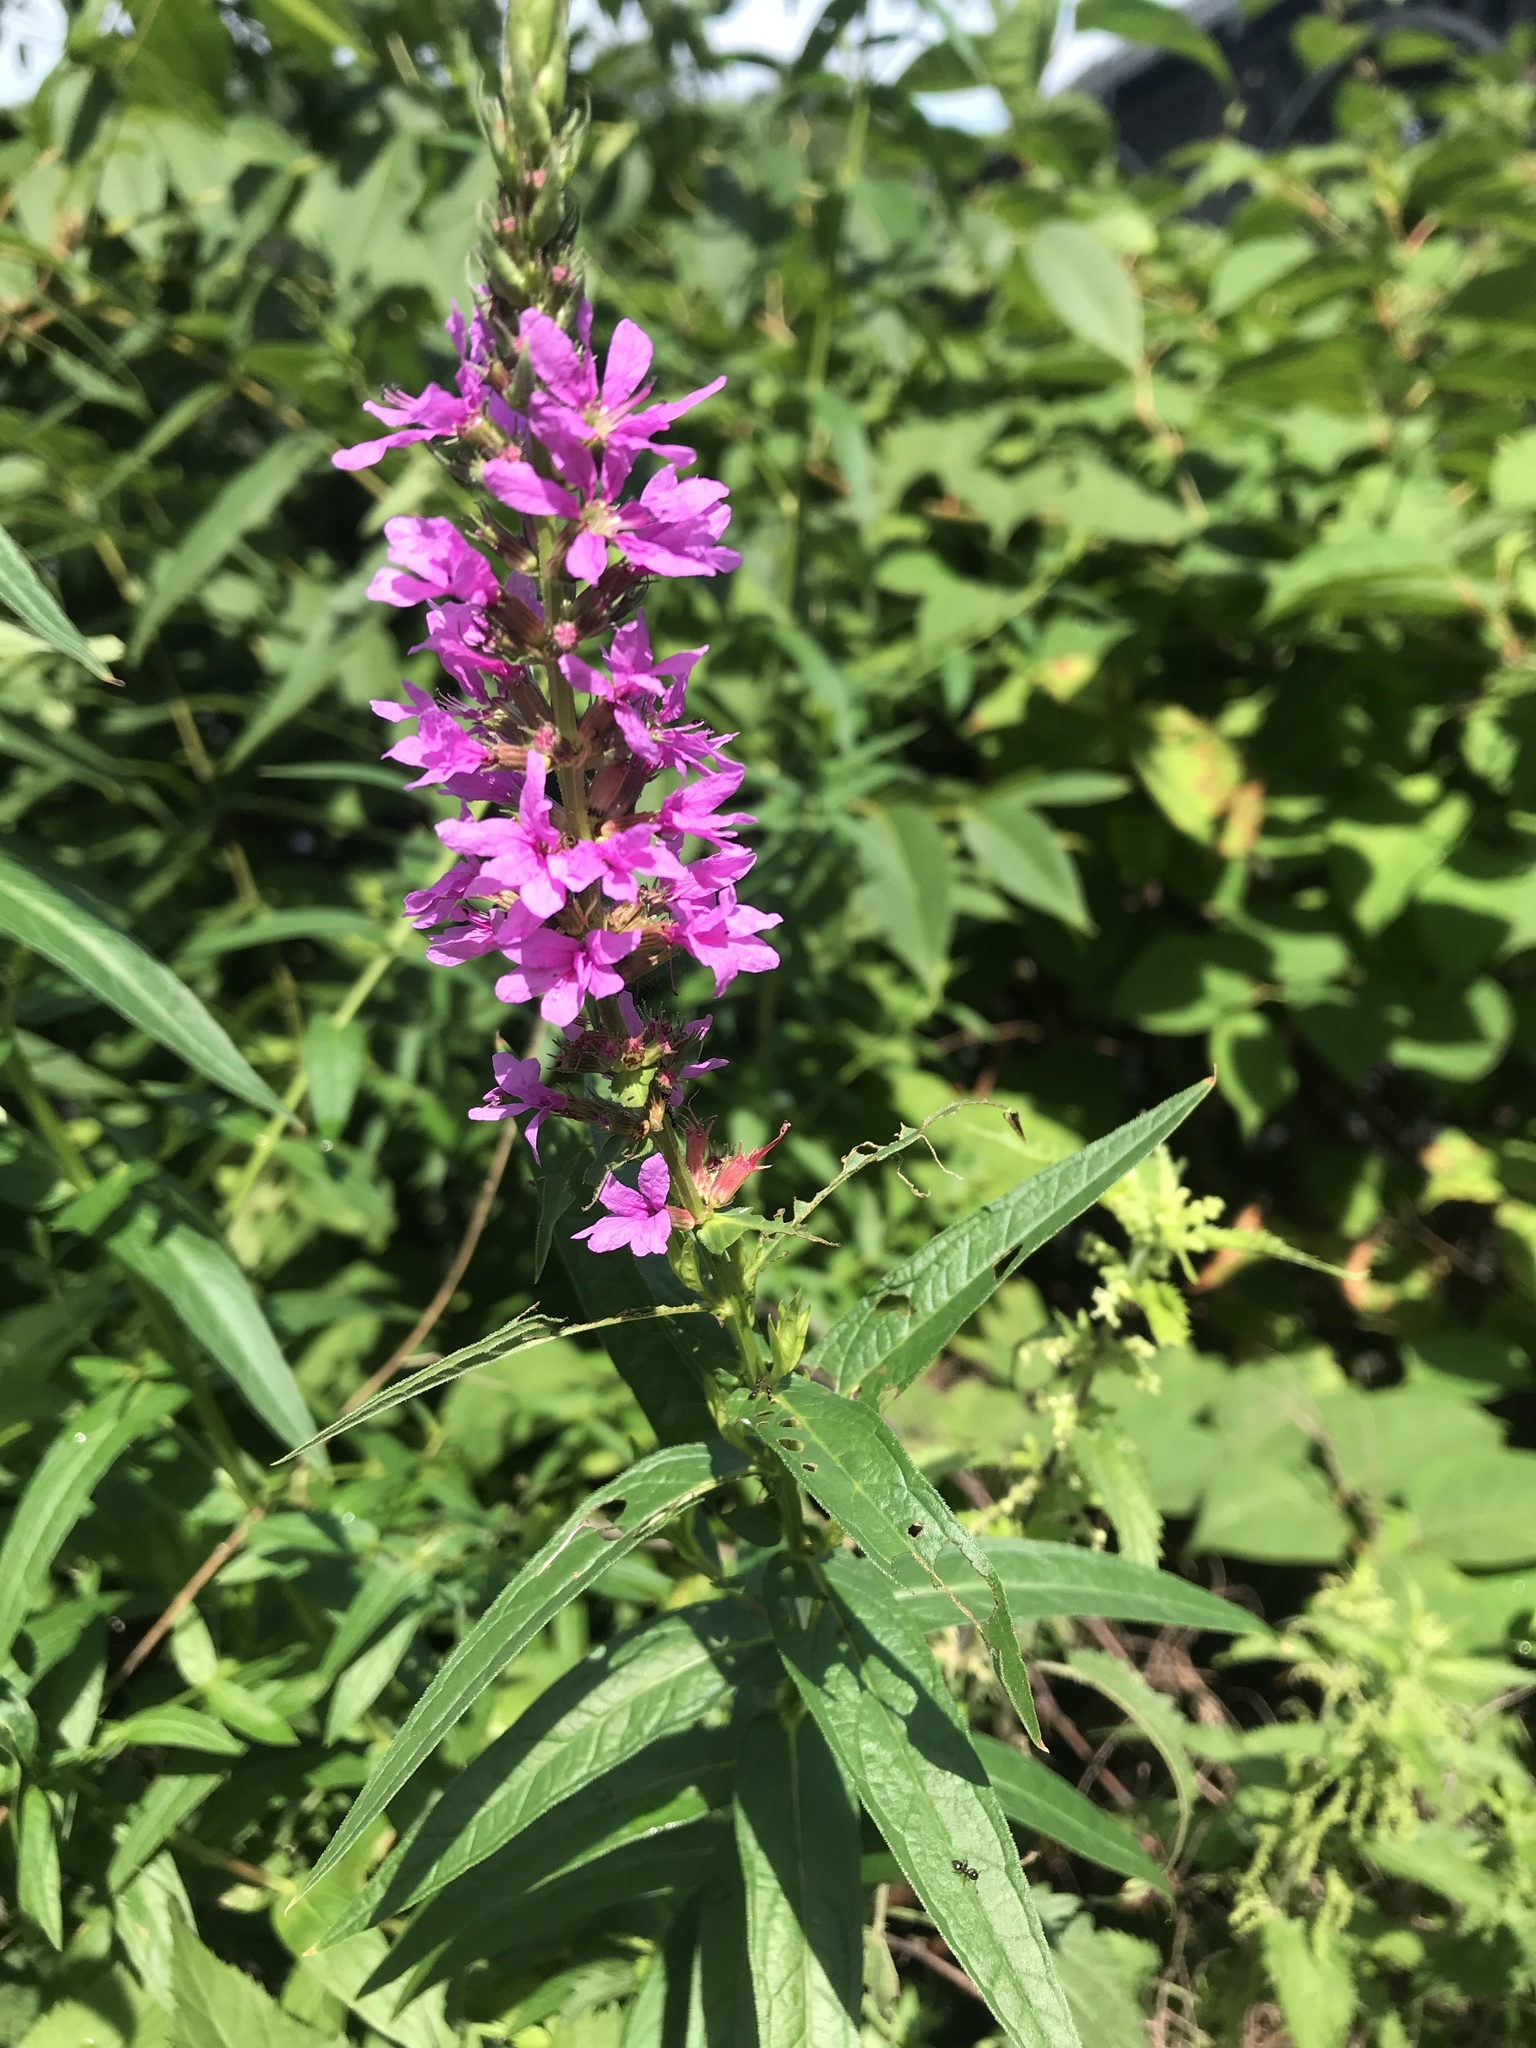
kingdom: Plantae
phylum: Tracheophyta
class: Magnoliopsida
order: Myrtales
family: Lythraceae
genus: Lythrum
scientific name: Lythrum salicaria
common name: Purple loosestrife
